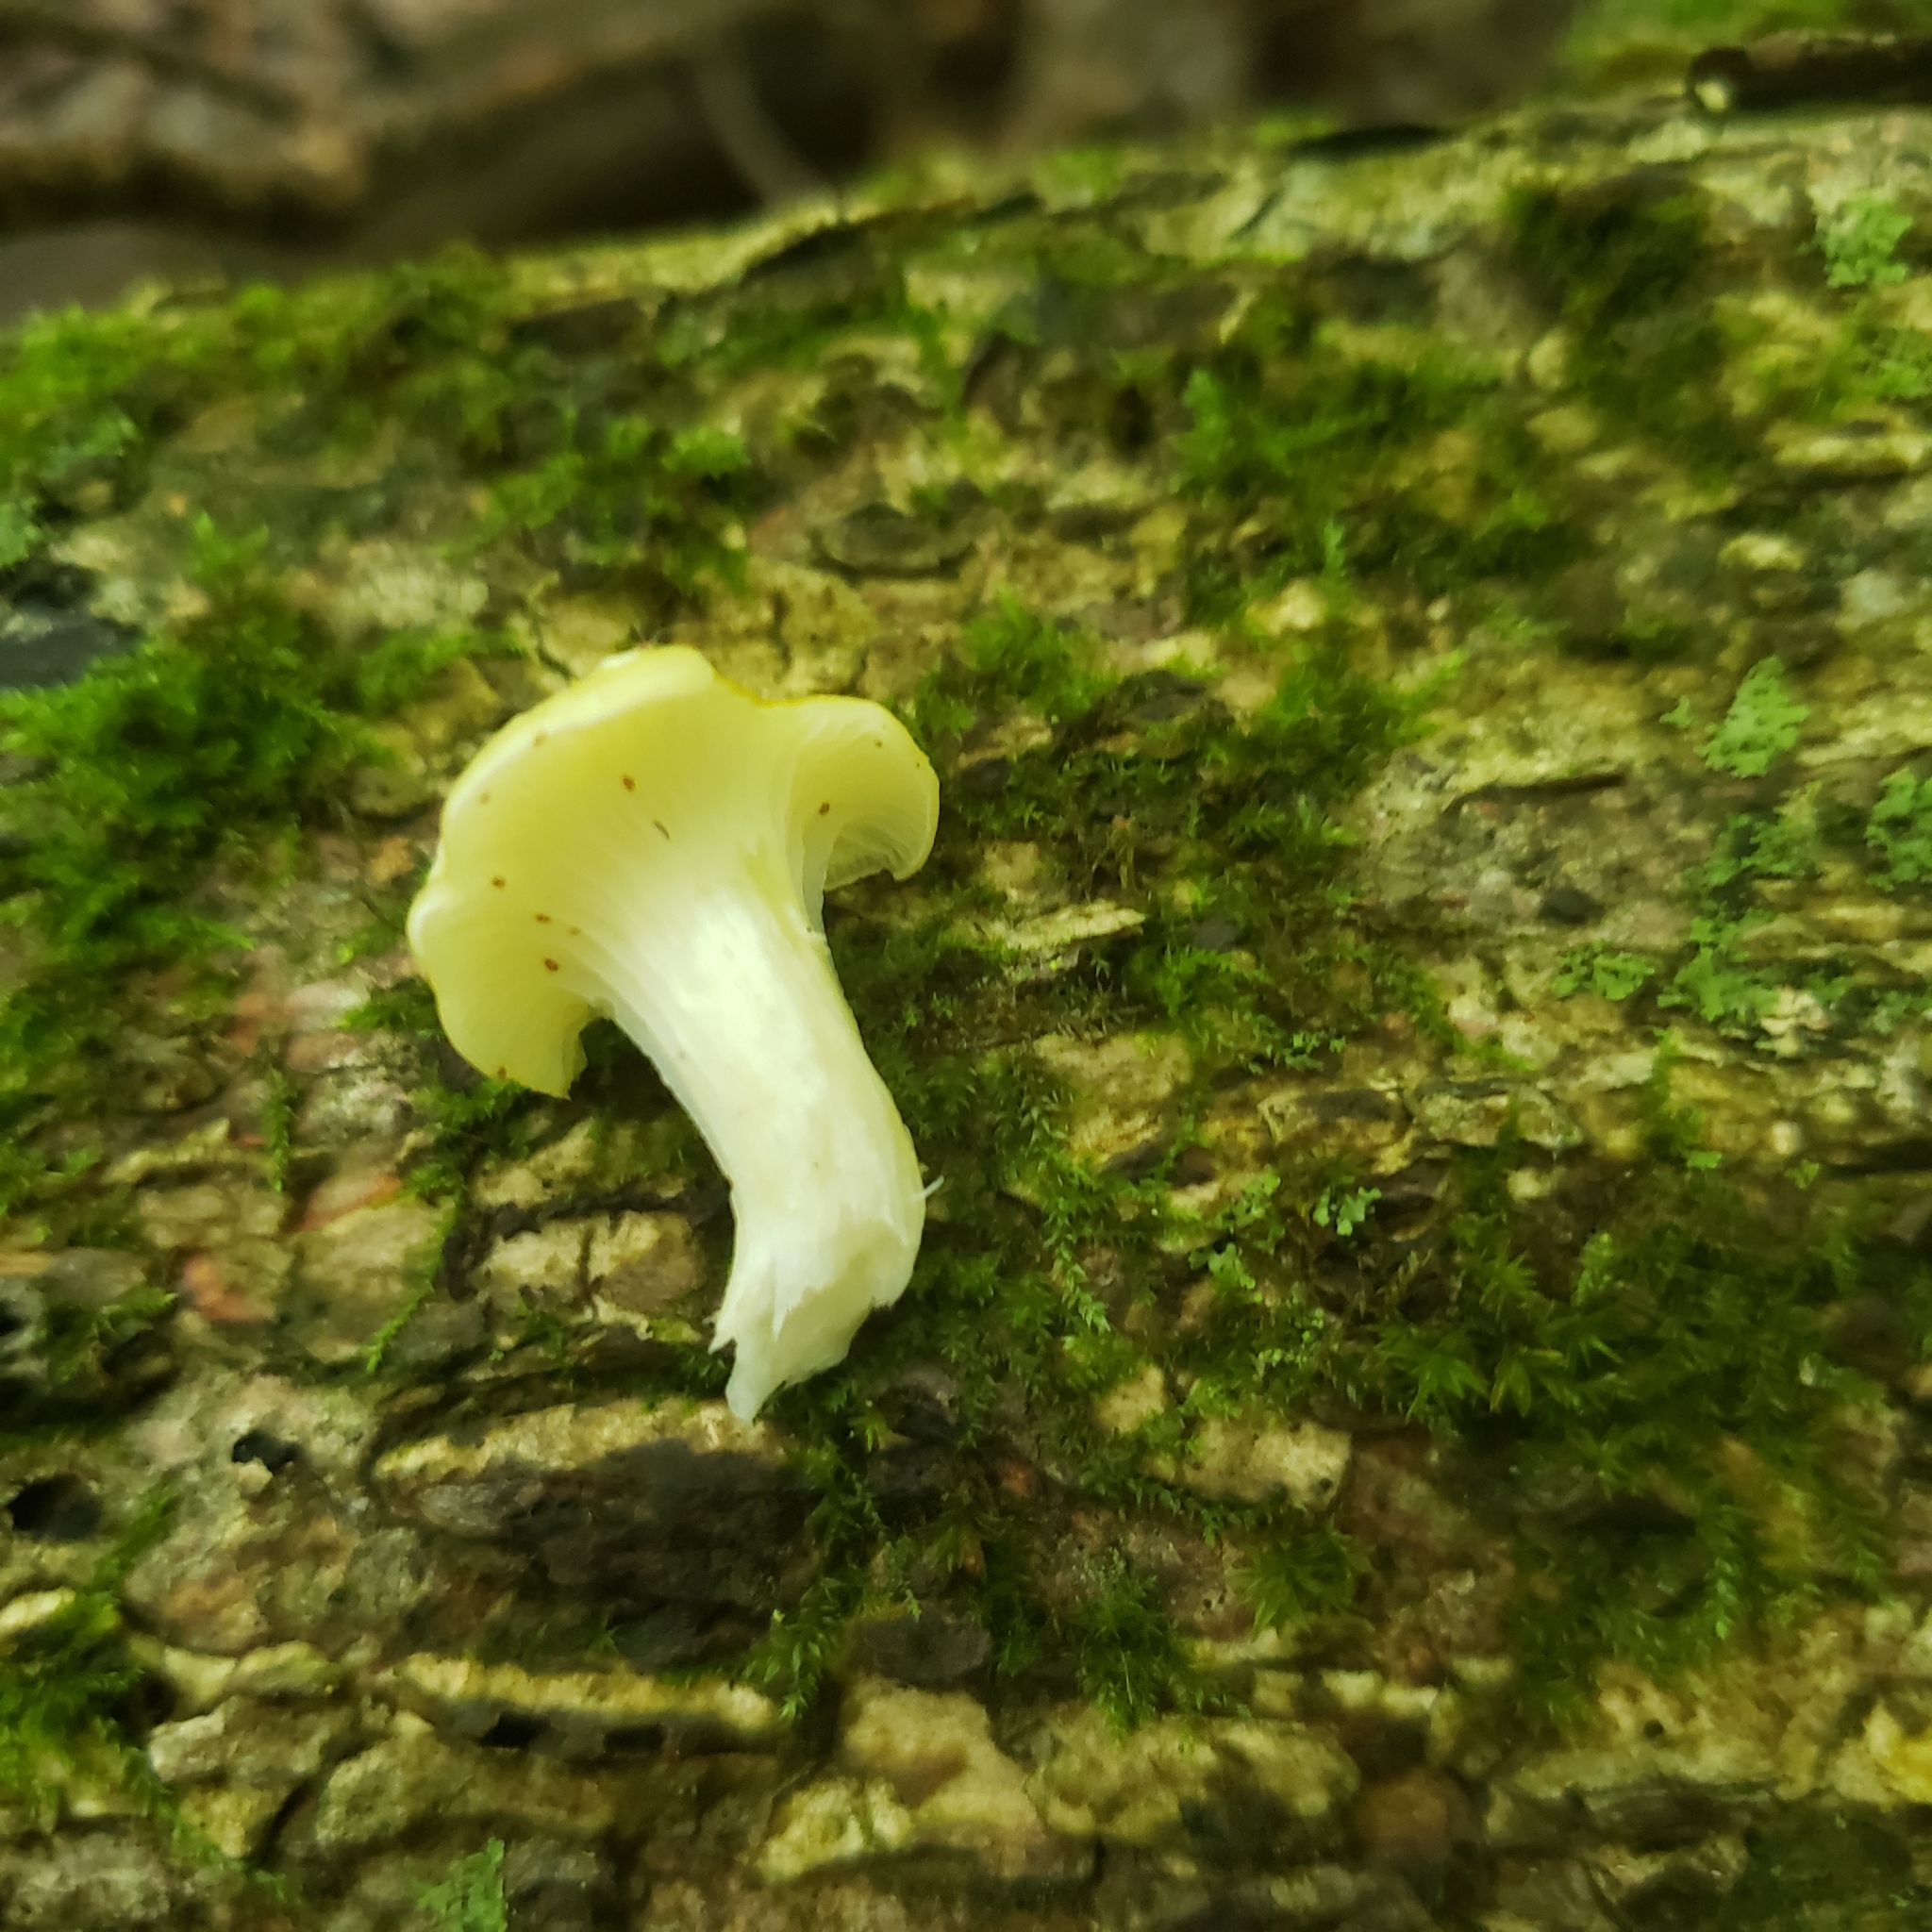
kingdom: Fungi
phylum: Basidiomycota
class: Agaricomycetes
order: Agaricales
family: Pleurotaceae
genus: Pleurotus
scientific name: Pleurotus citrinopileatus
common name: Golden oyster mushroom
